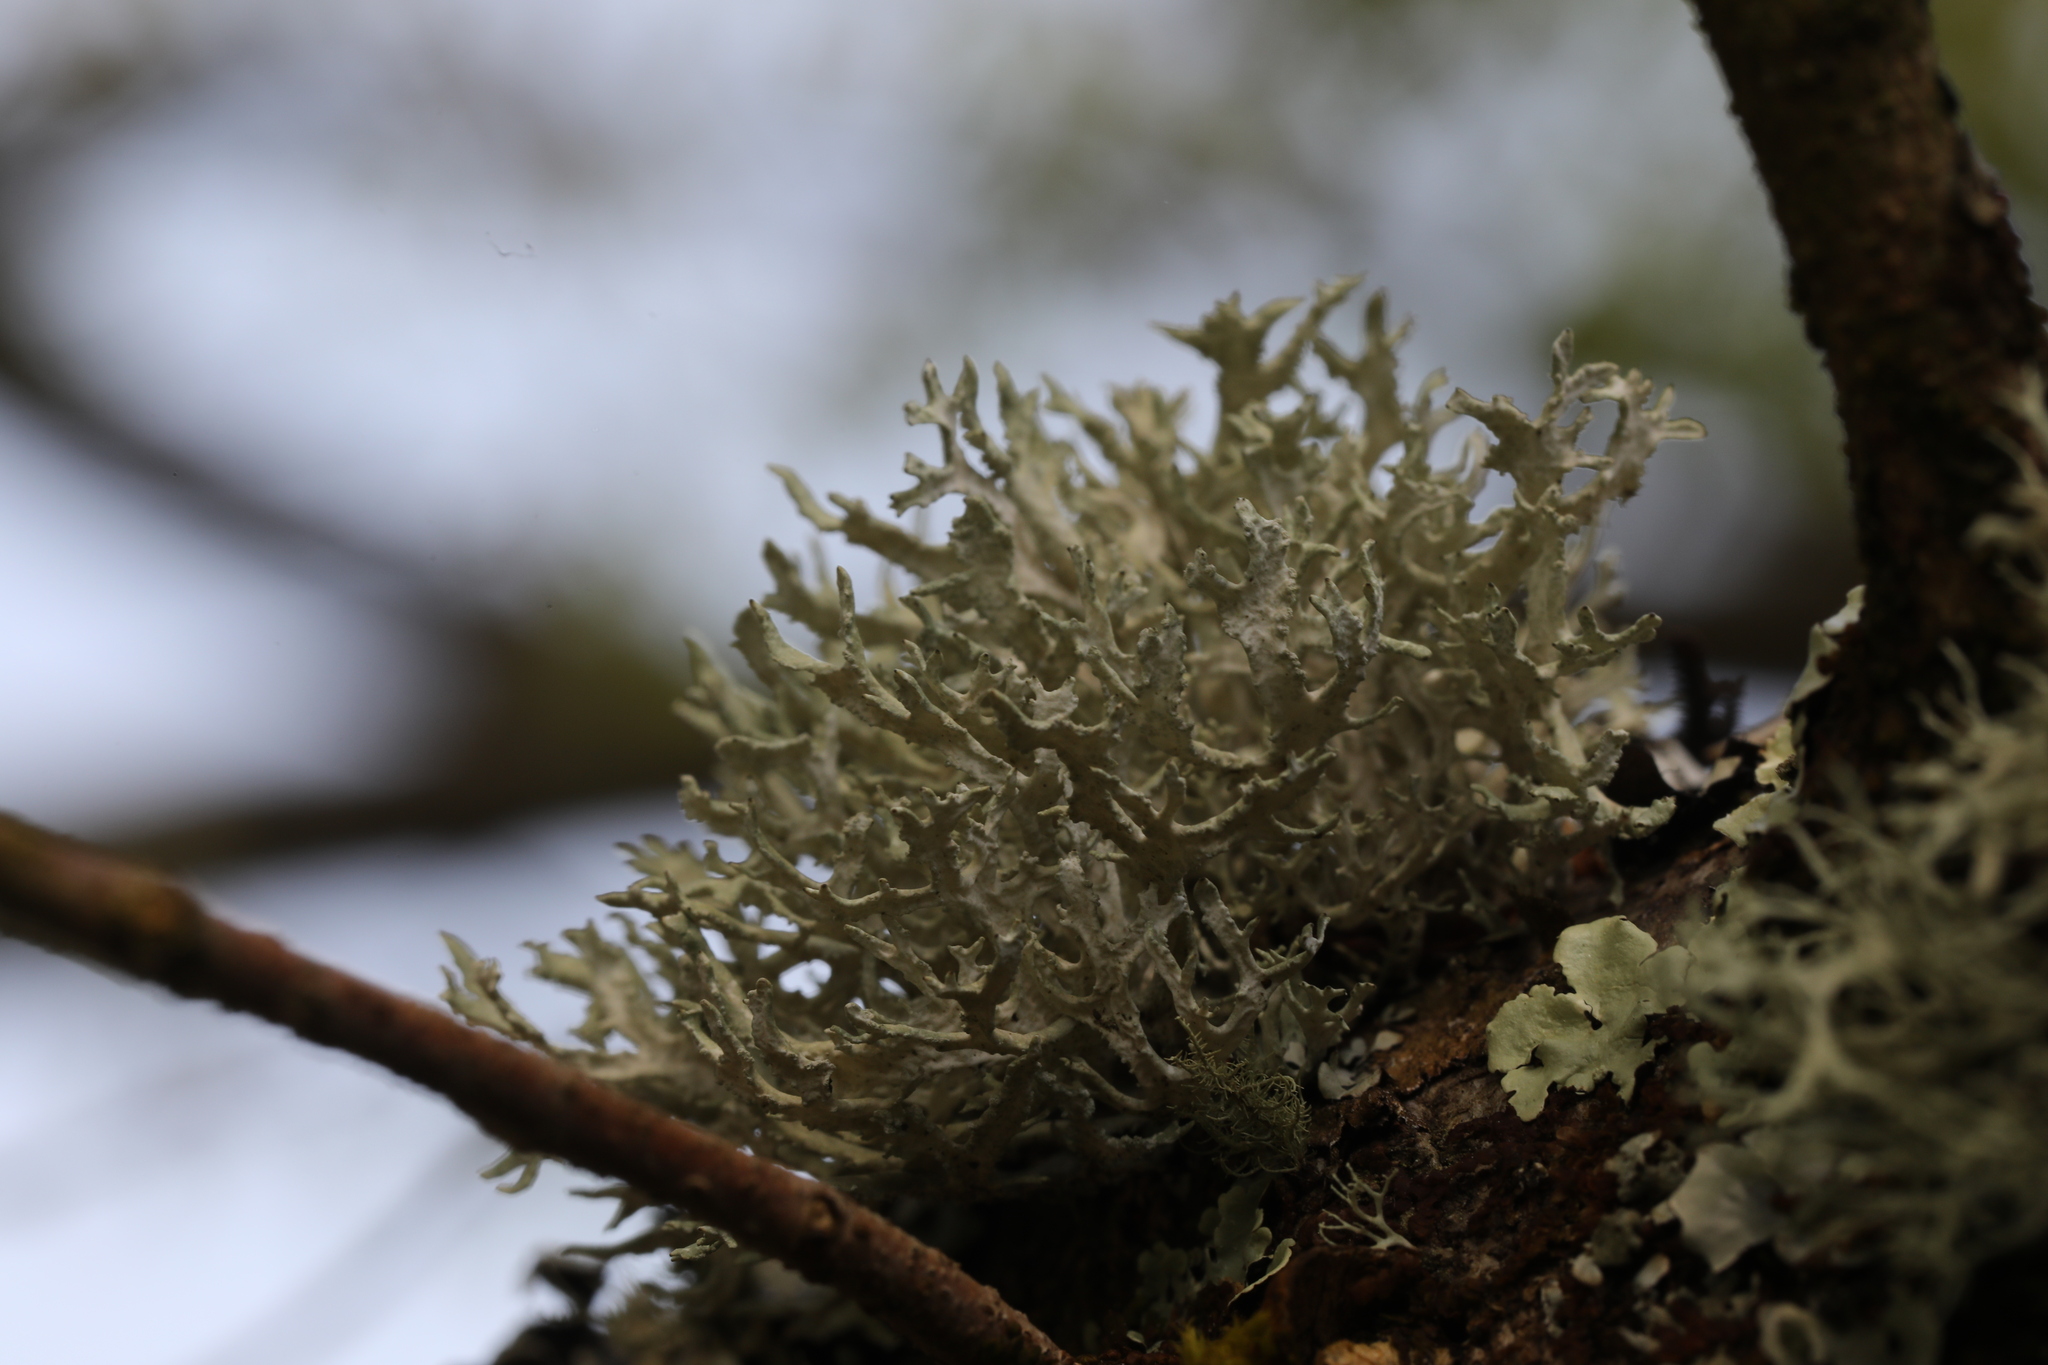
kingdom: Fungi
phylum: Ascomycota
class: Lecanoromycetes
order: Lecanorales
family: Parmeliaceae
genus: Evernia
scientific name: Evernia prunastri
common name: Oak moss
